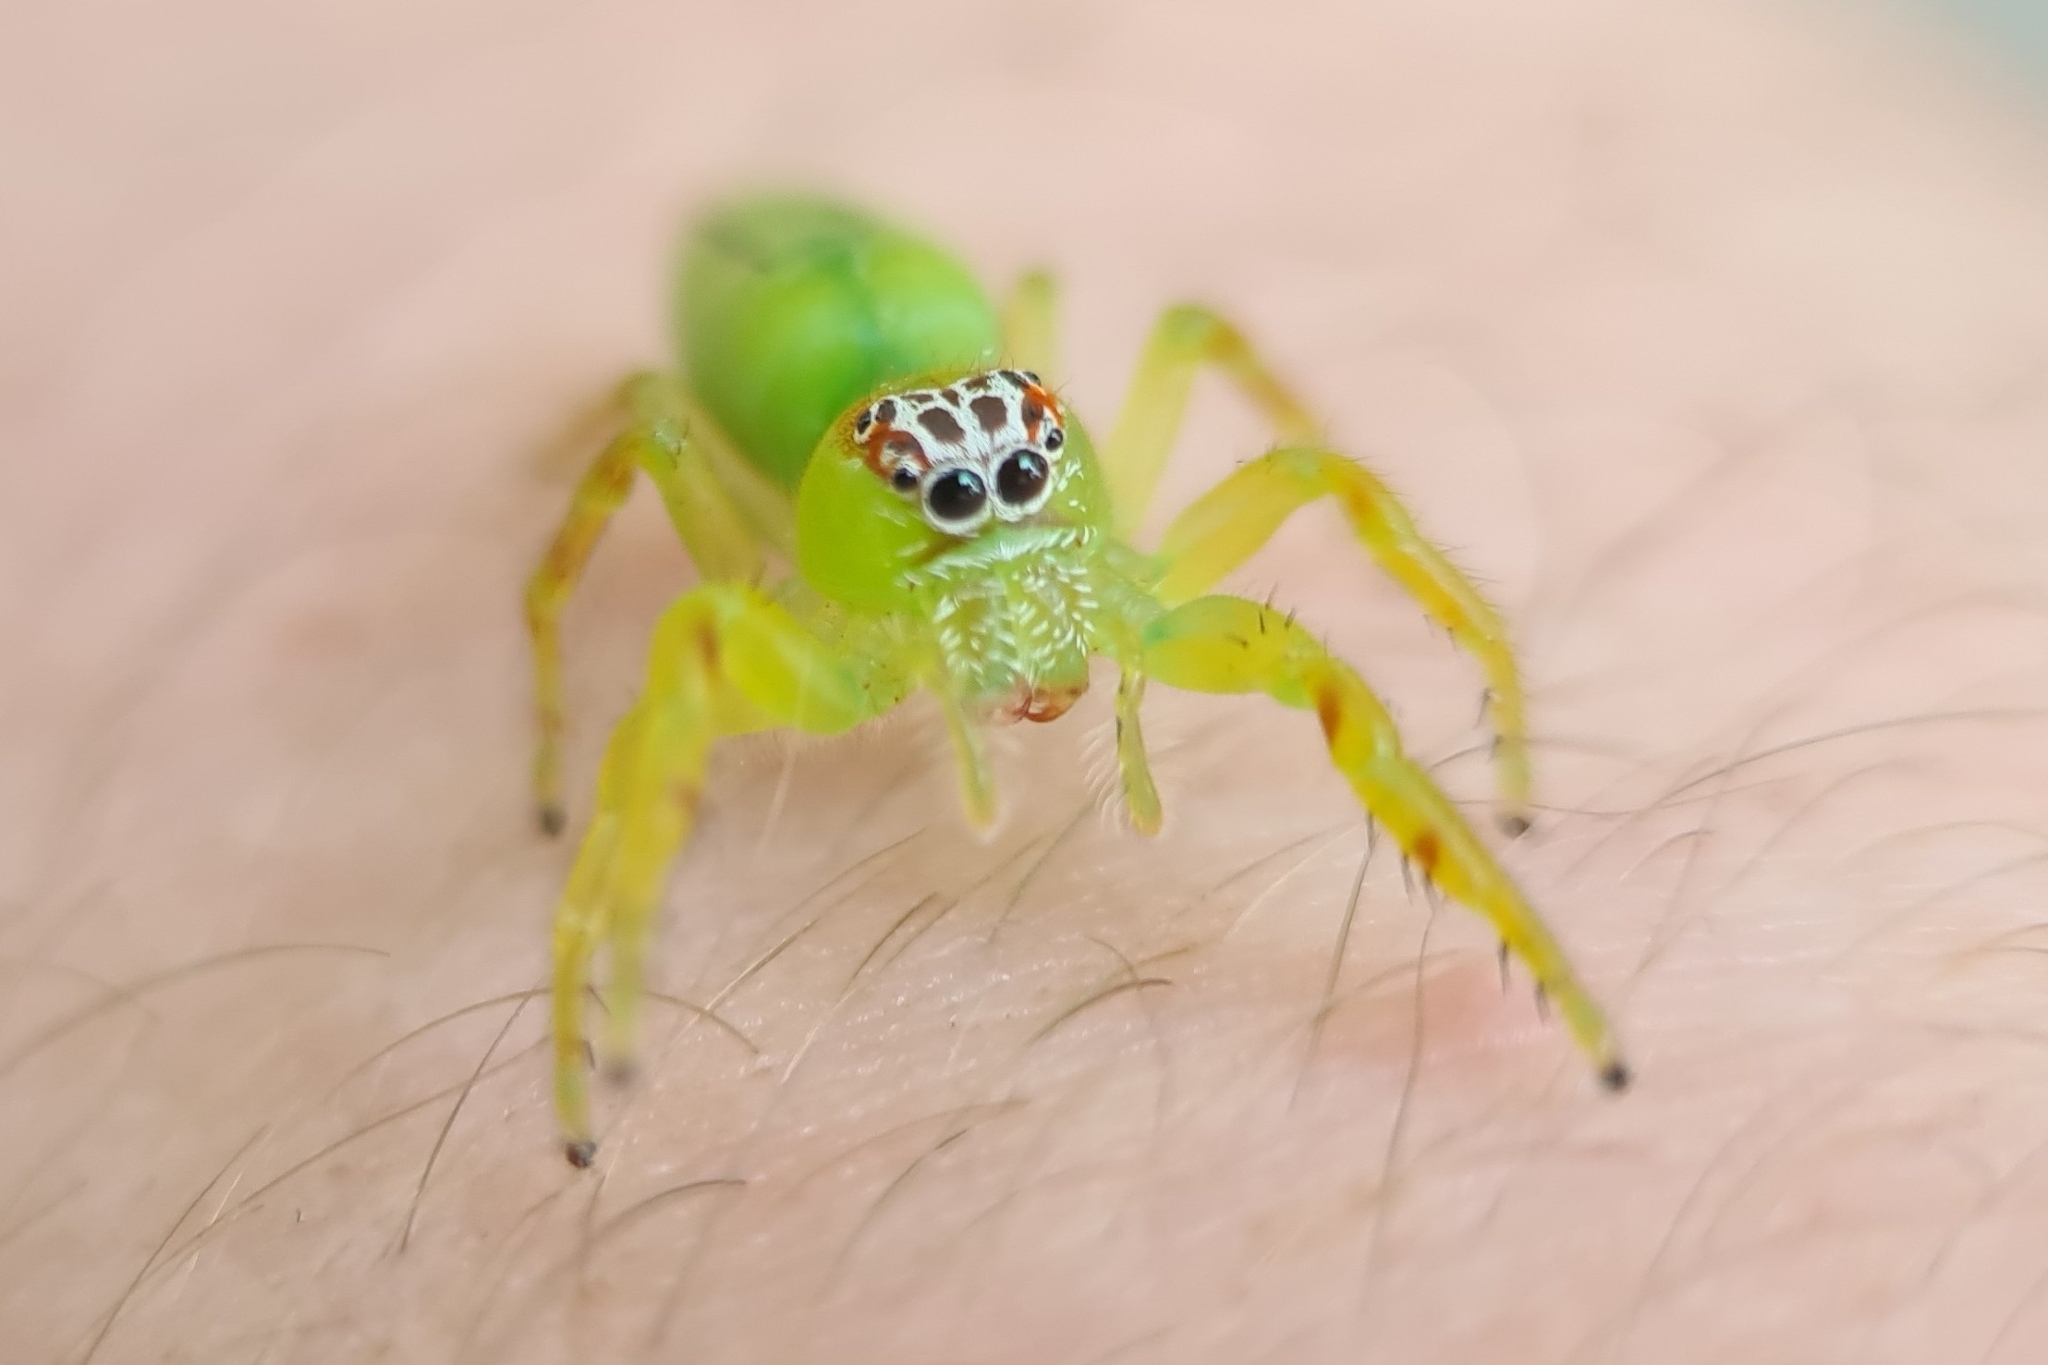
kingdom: Animalia
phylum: Arthropoda
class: Arachnida
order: Araneae
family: Salticidae
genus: Mopsus
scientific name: Mopsus mormon
